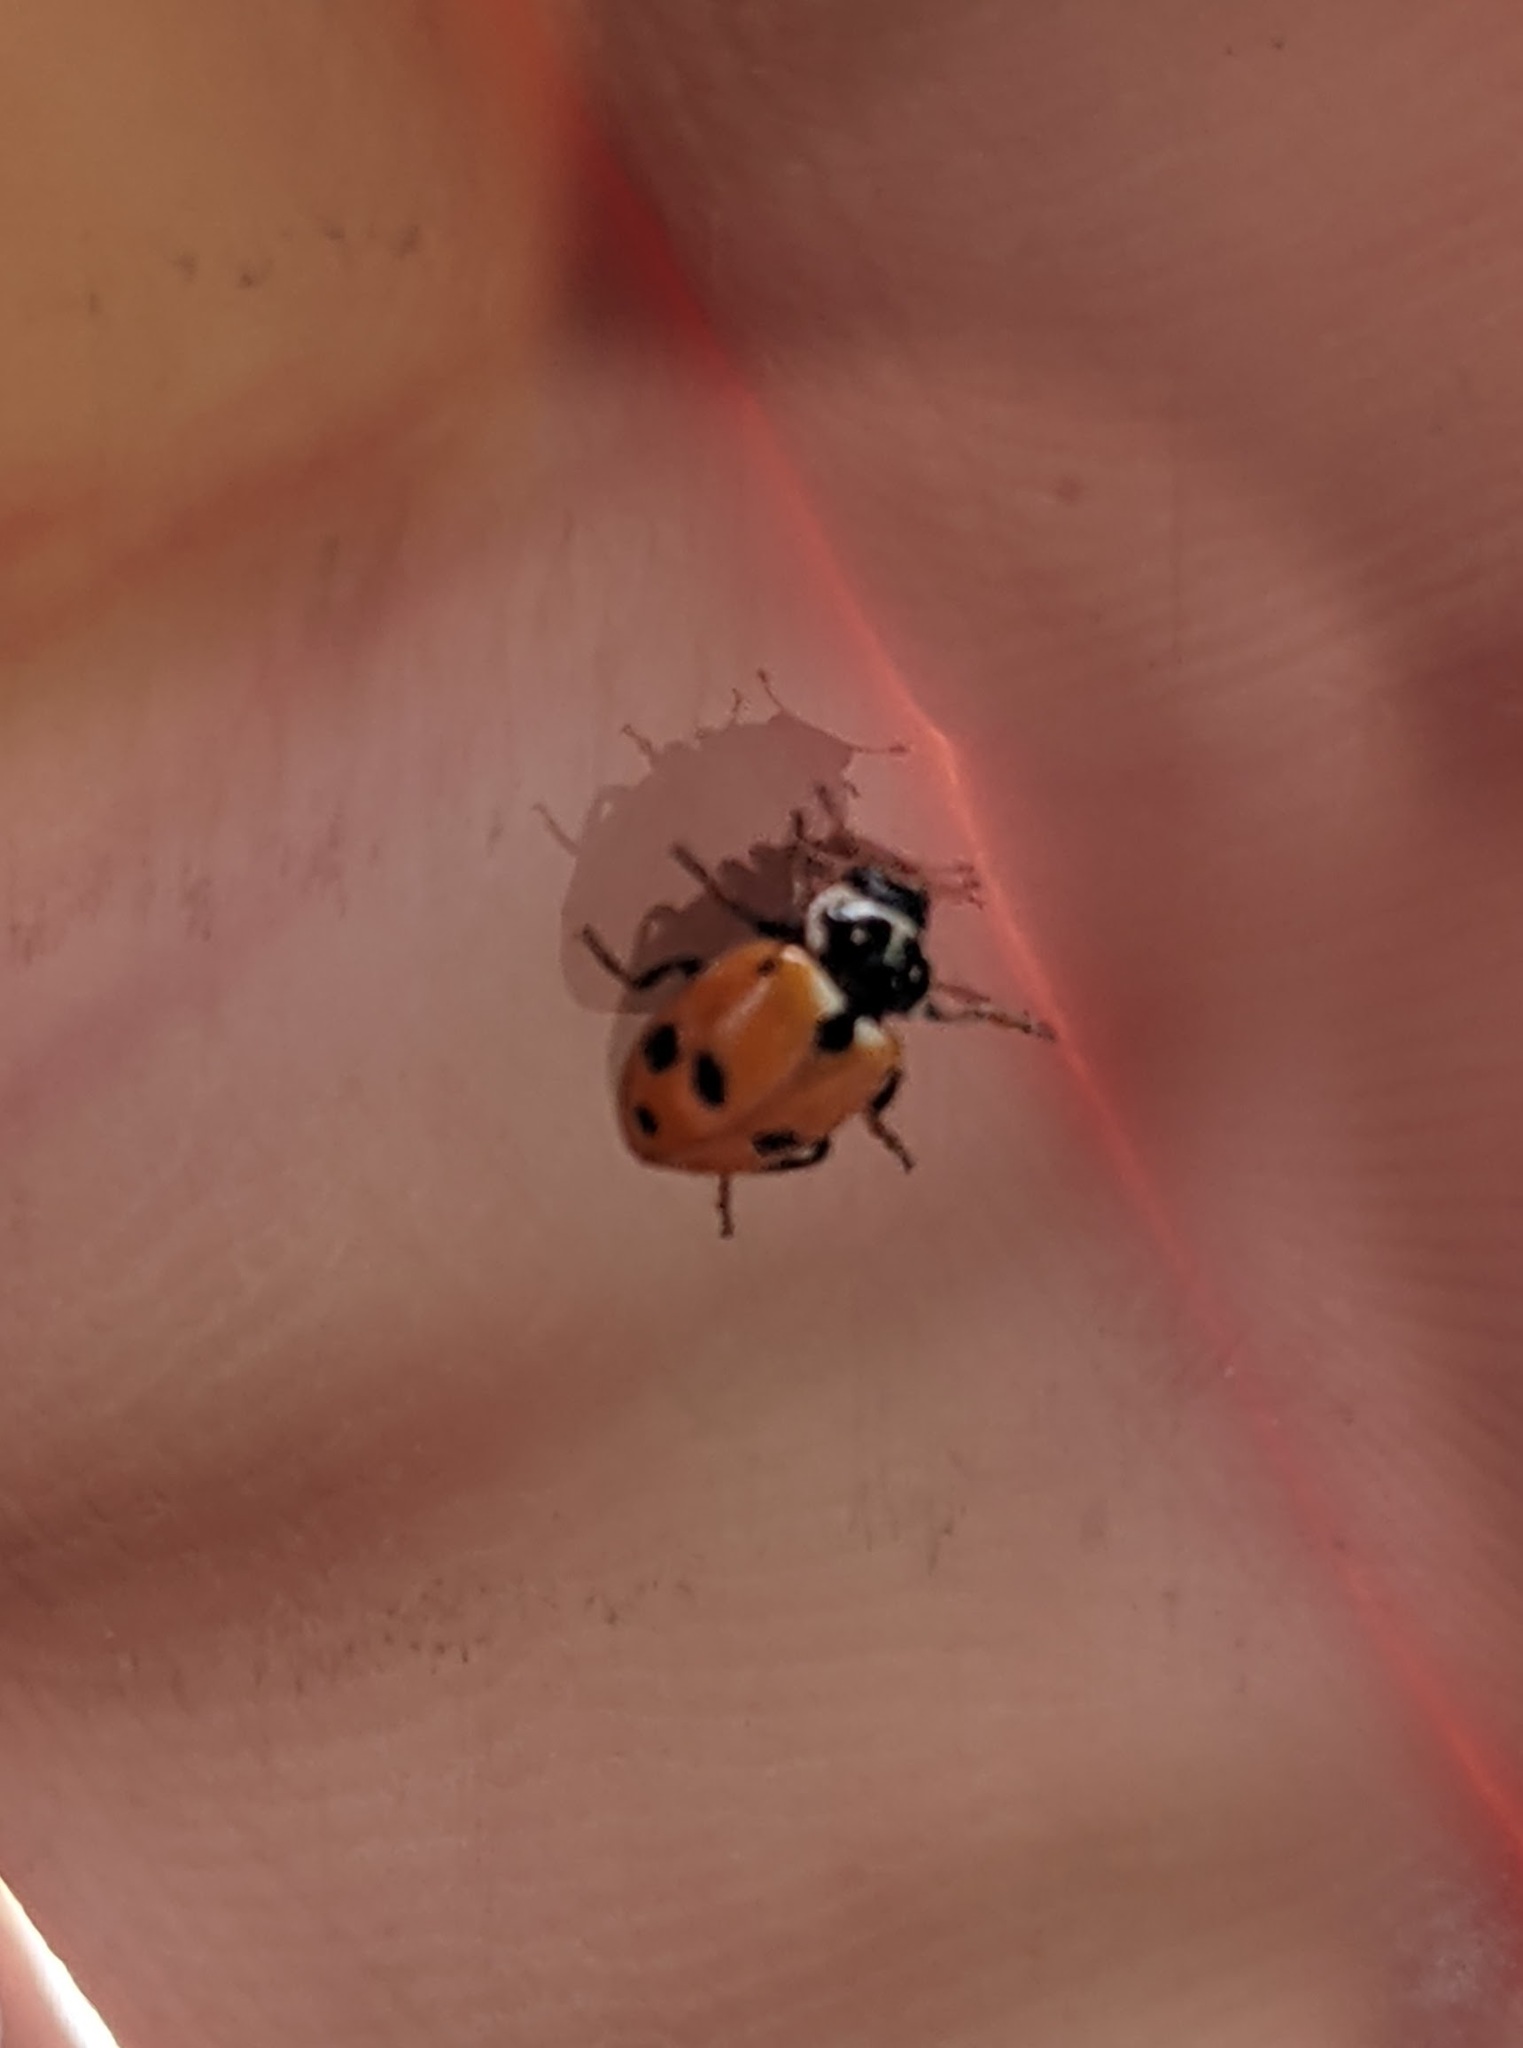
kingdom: Animalia
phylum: Arthropoda
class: Insecta
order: Coleoptera
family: Coccinellidae
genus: Hippodamia
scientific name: Hippodamia variegata
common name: Ladybird beetle
